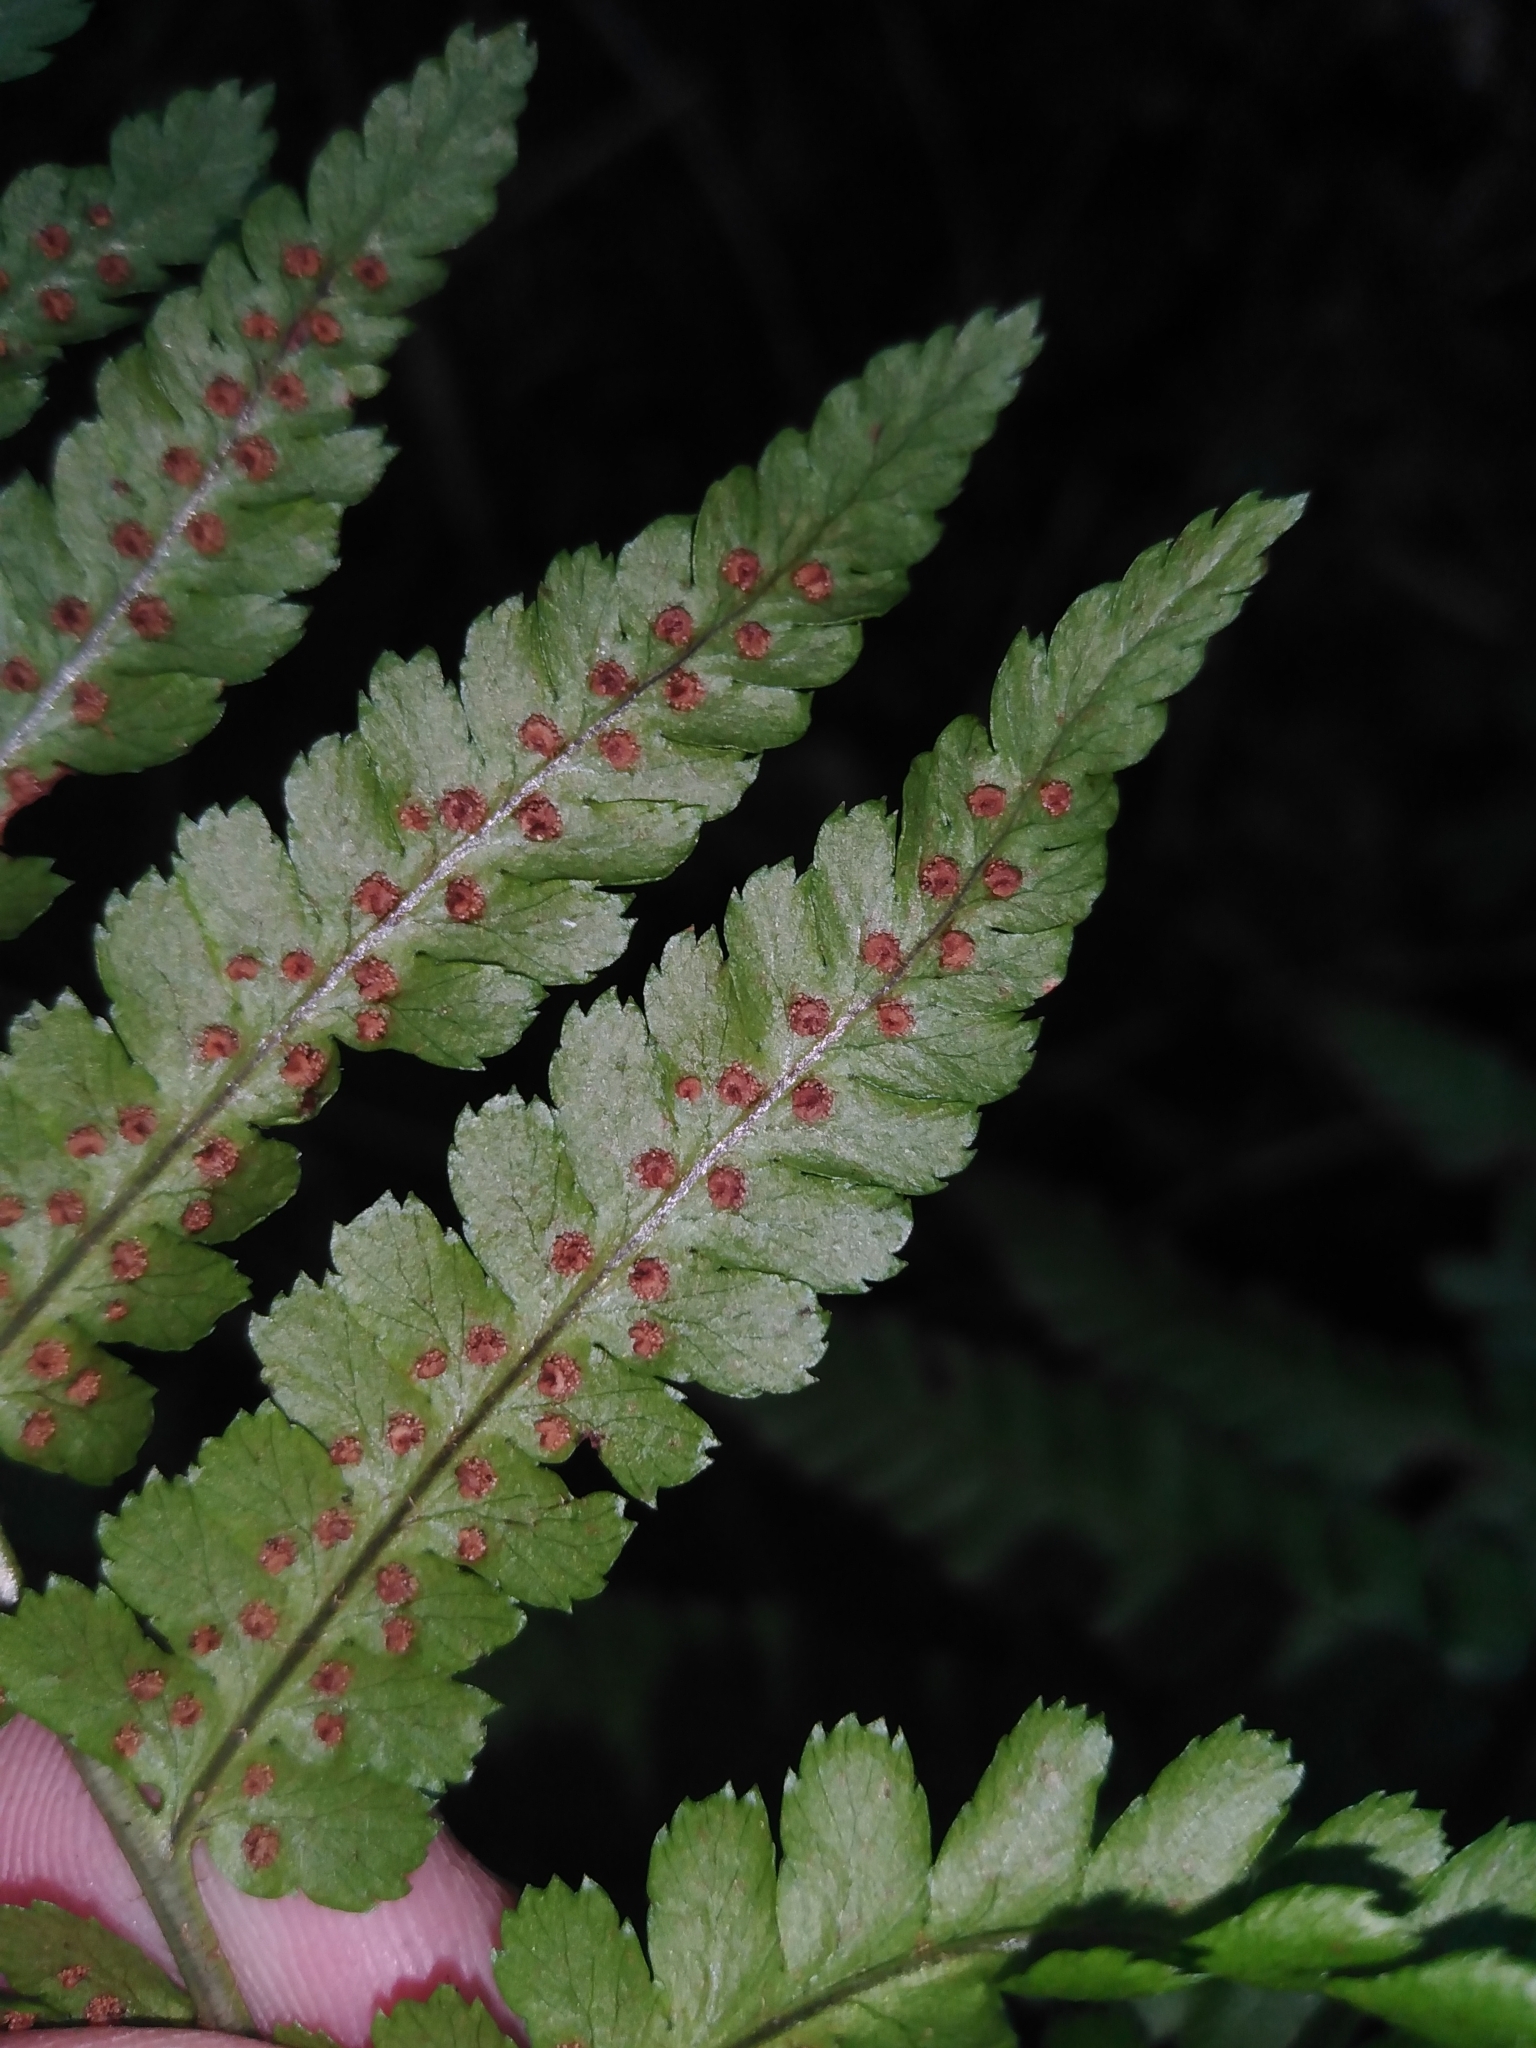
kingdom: Plantae
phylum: Tracheophyta
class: Polypodiopsida
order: Polypodiales
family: Dryopteridaceae
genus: Dryopteris
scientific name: Dryopteris filix-mas
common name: Male fern
